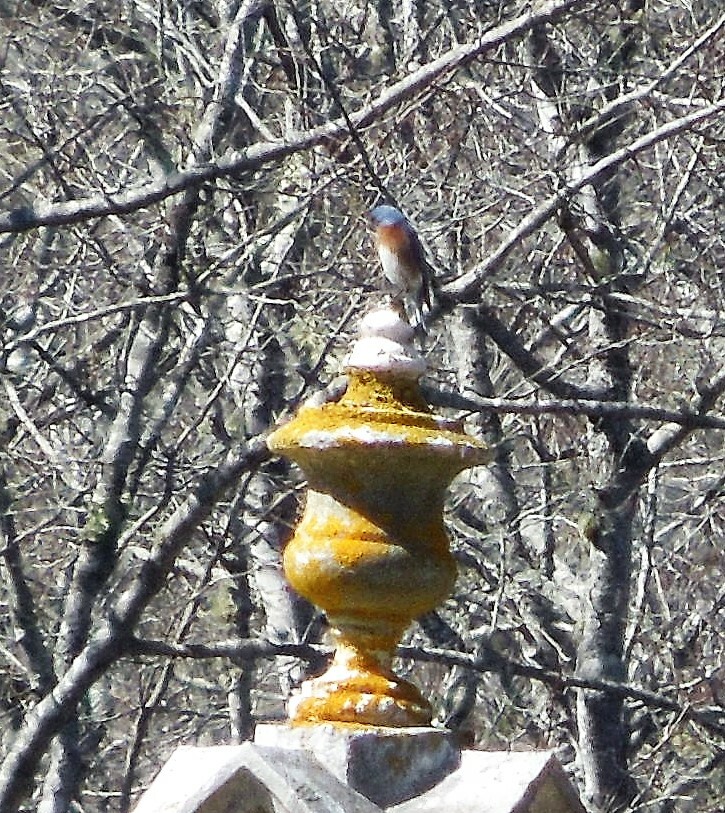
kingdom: Animalia
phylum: Chordata
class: Aves
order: Passeriformes
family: Turdidae
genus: Sialia
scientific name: Sialia sialis
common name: Eastern bluebird
